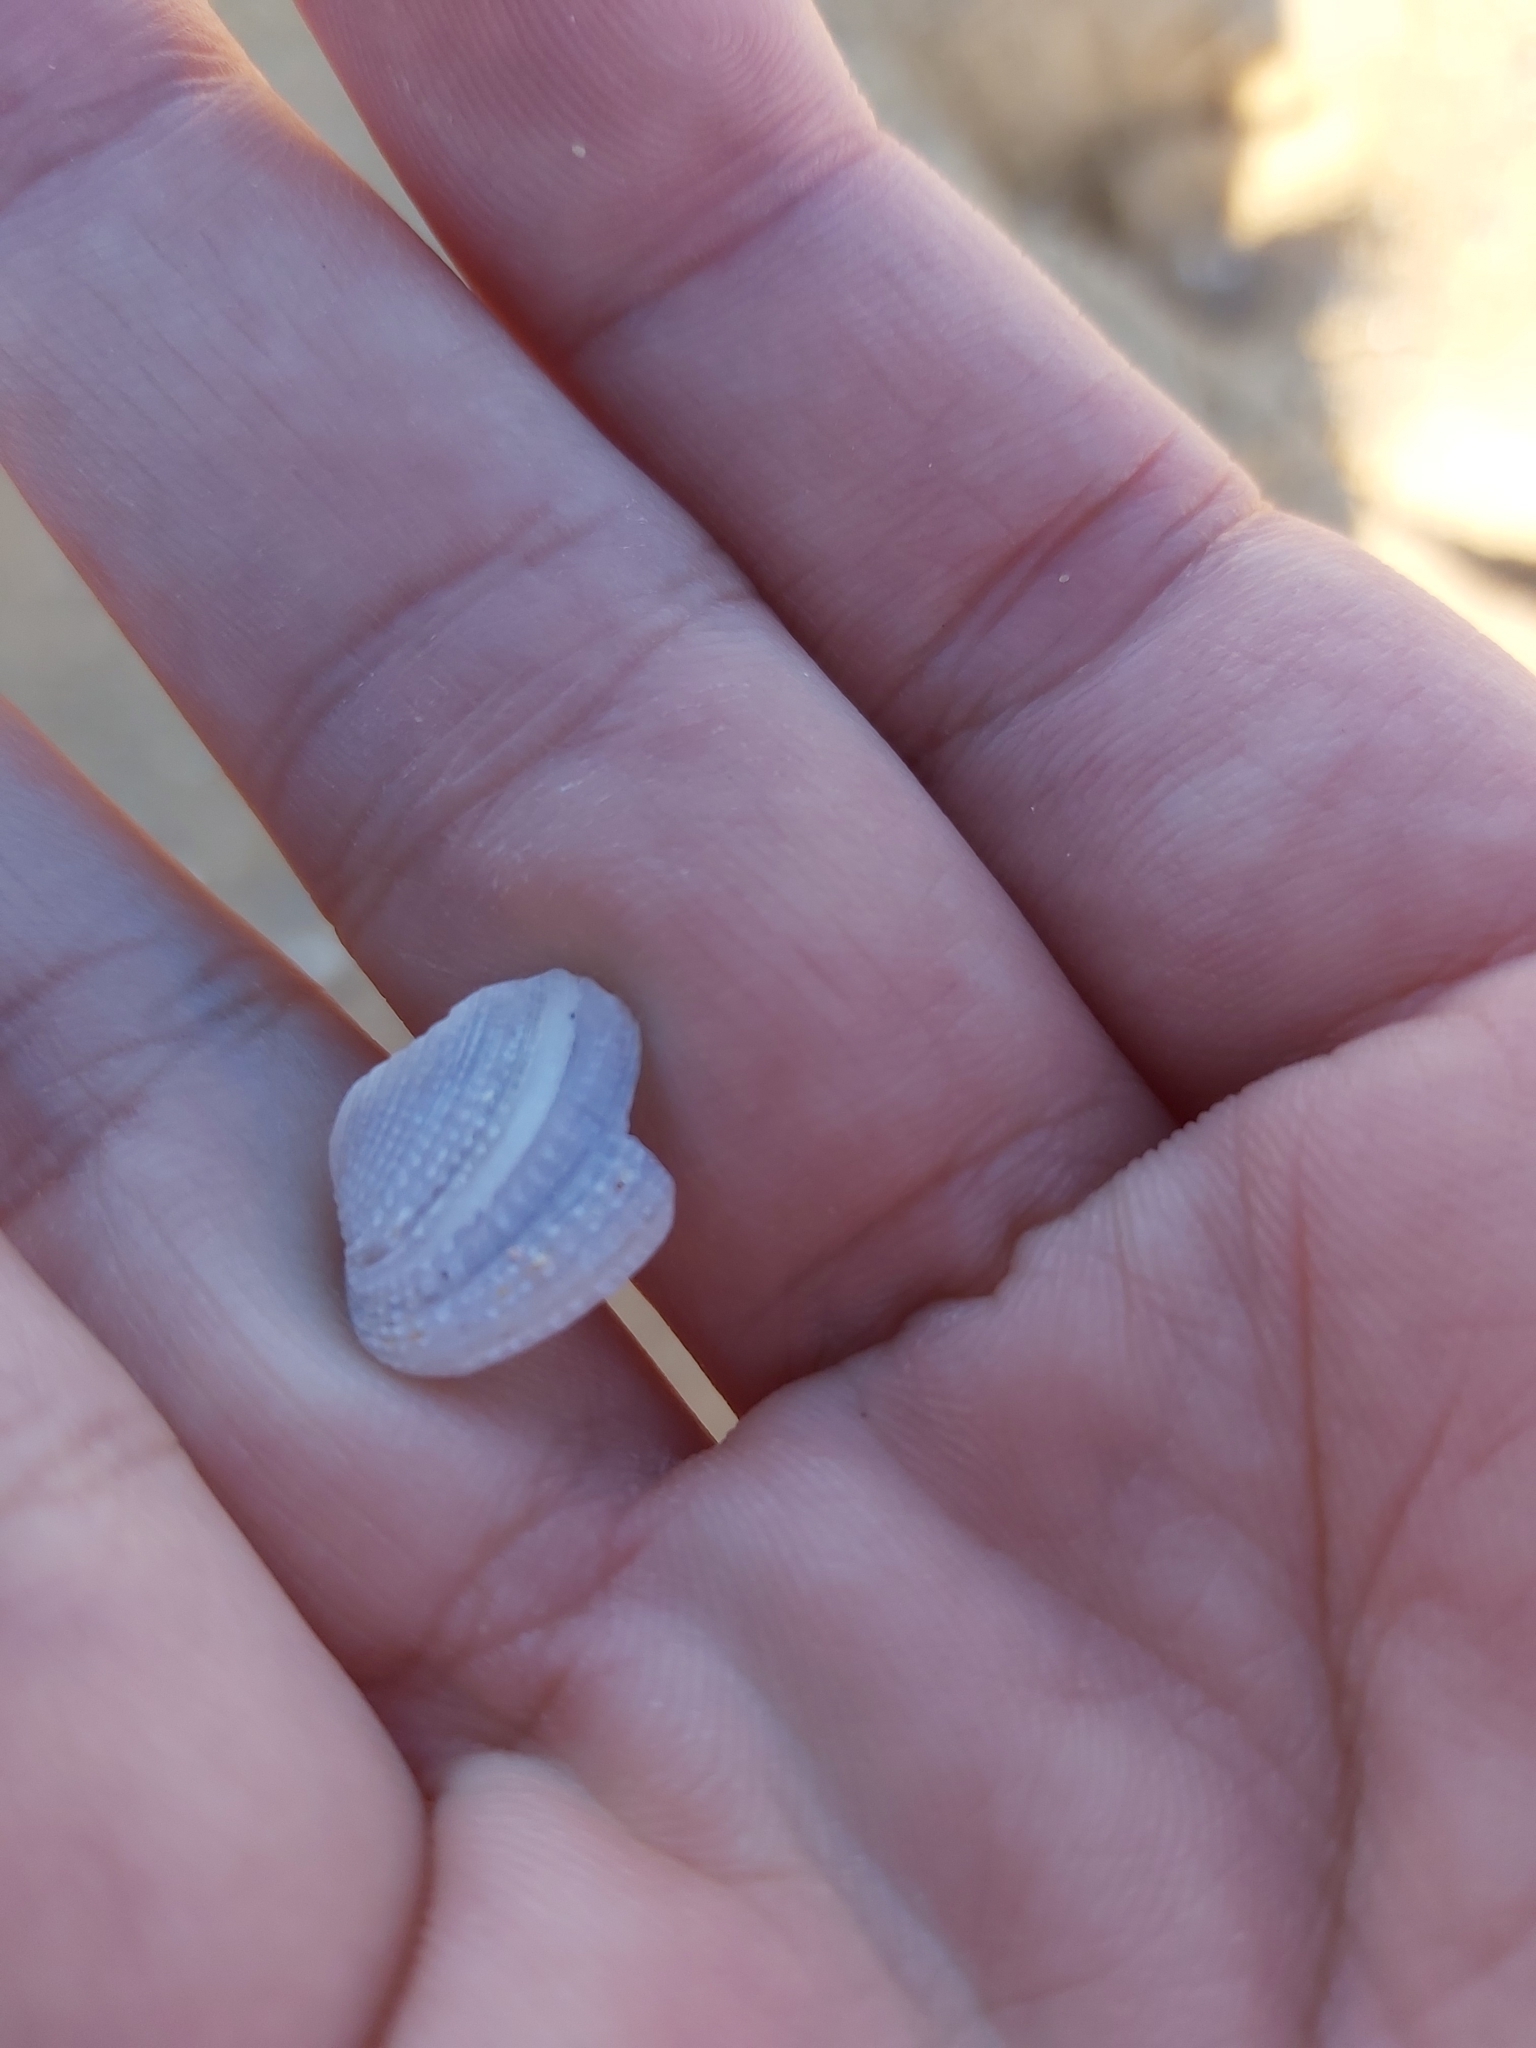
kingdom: Animalia
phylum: Mollusca
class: Bivalvia
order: Venerida
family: Veneridae
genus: Irus
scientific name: Irus crenatus
